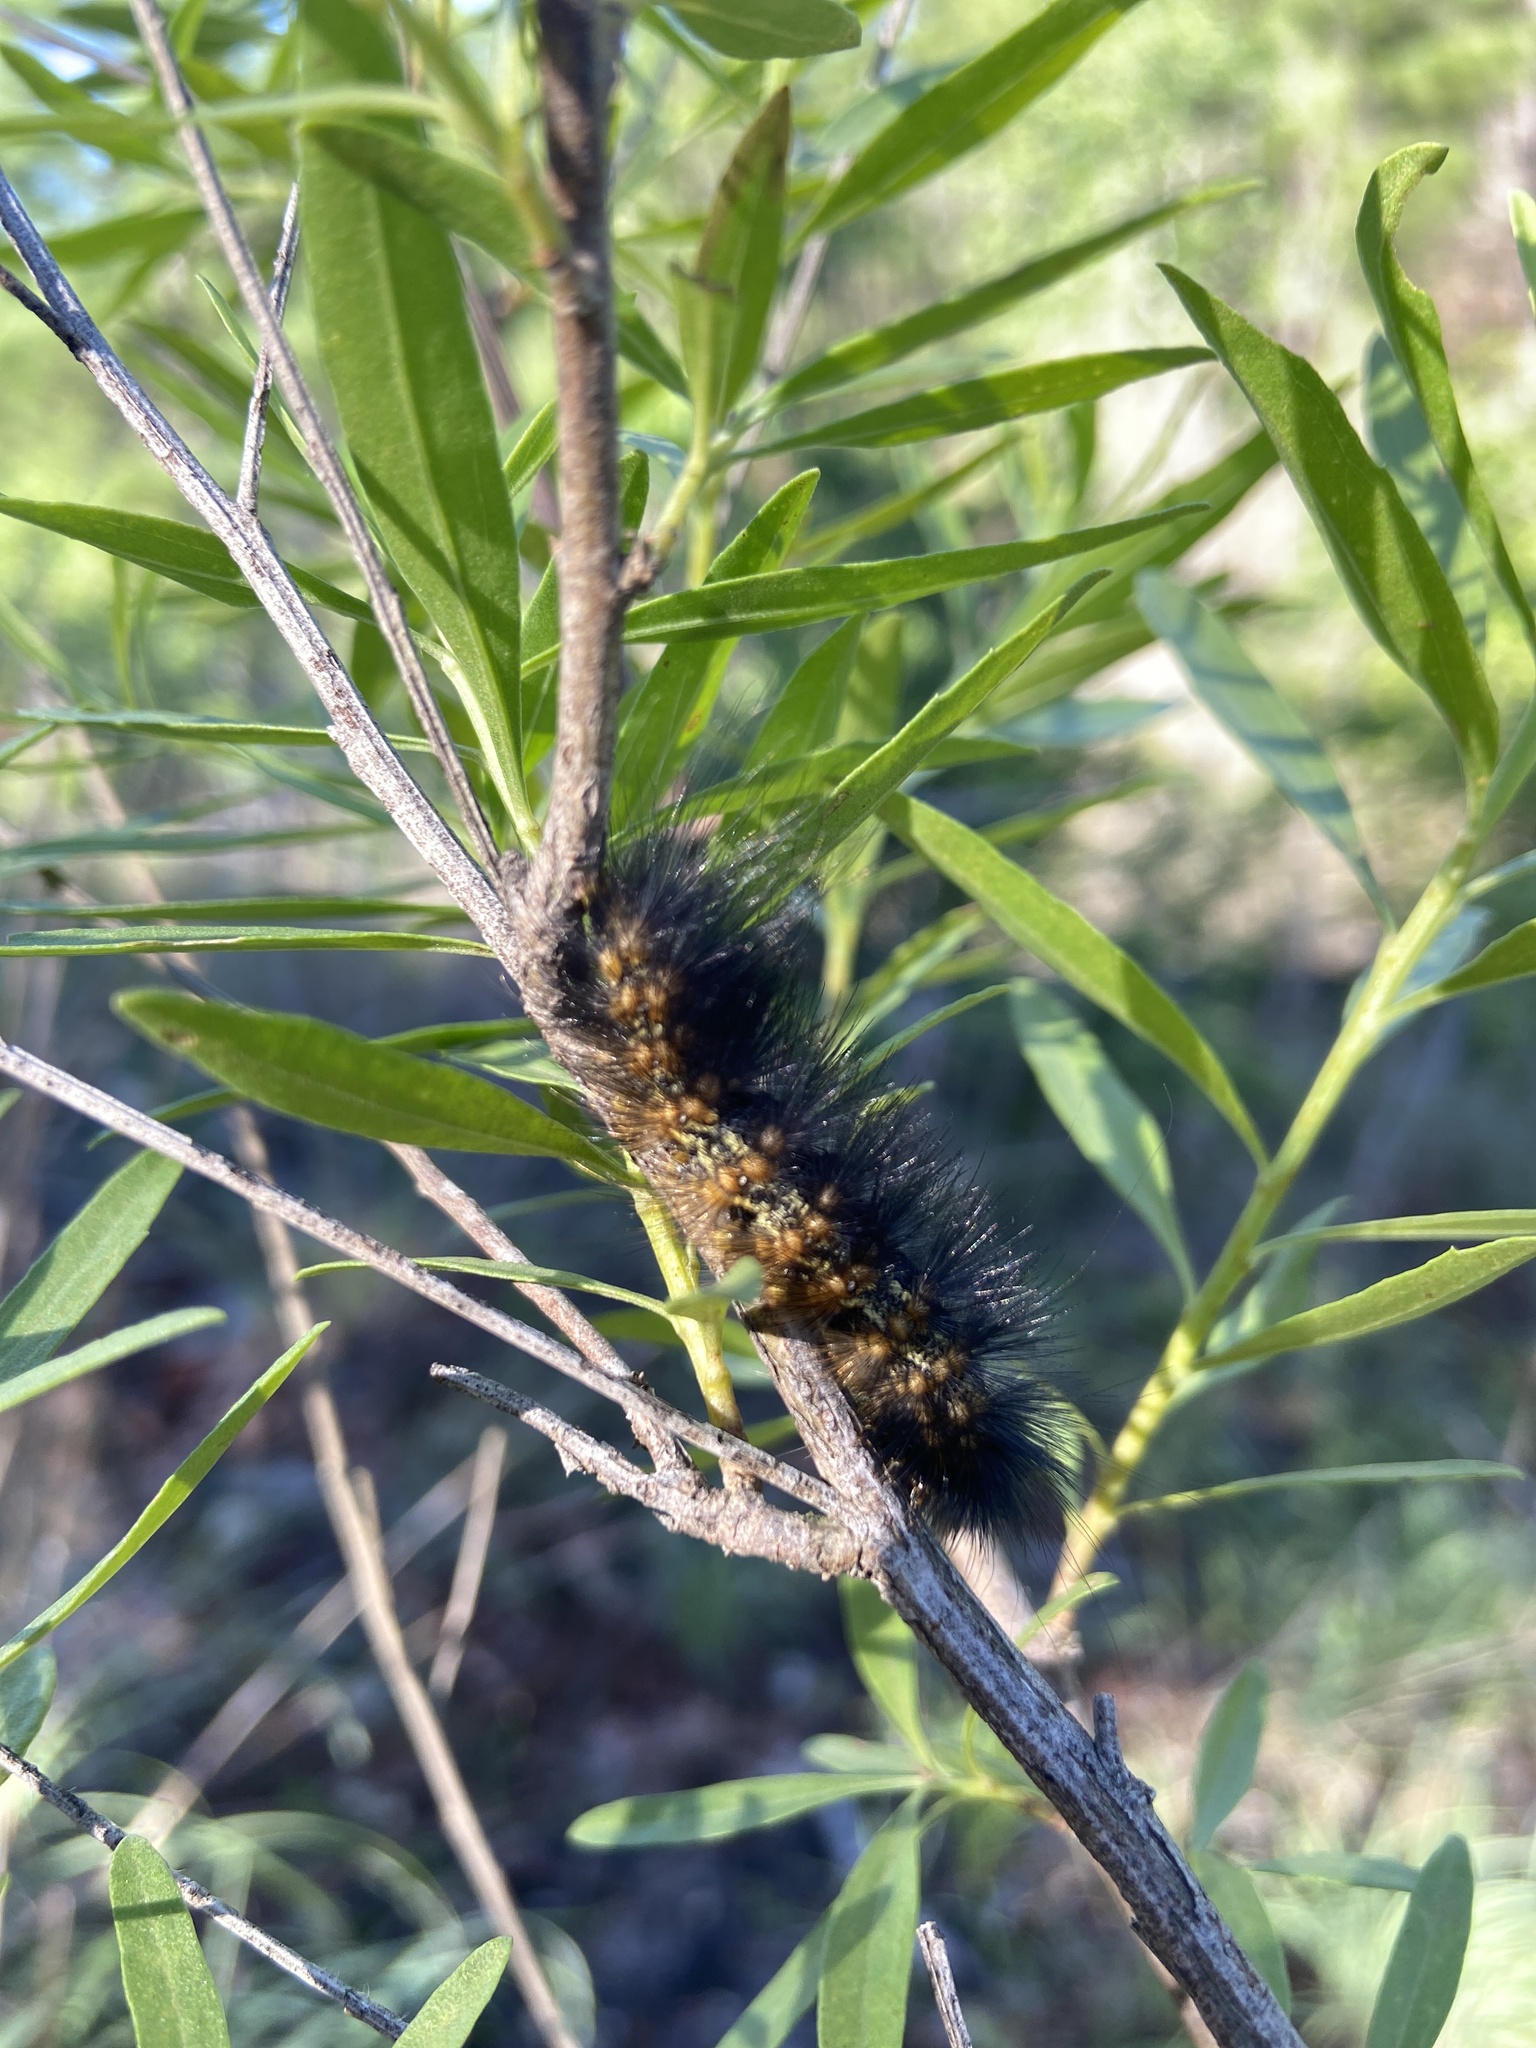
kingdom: Animalia
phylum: Arthropoda
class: Insecta
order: Lepidoptera
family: Erebidae
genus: Estigmene
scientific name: Estigmene acrea
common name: Salt marsh moth
